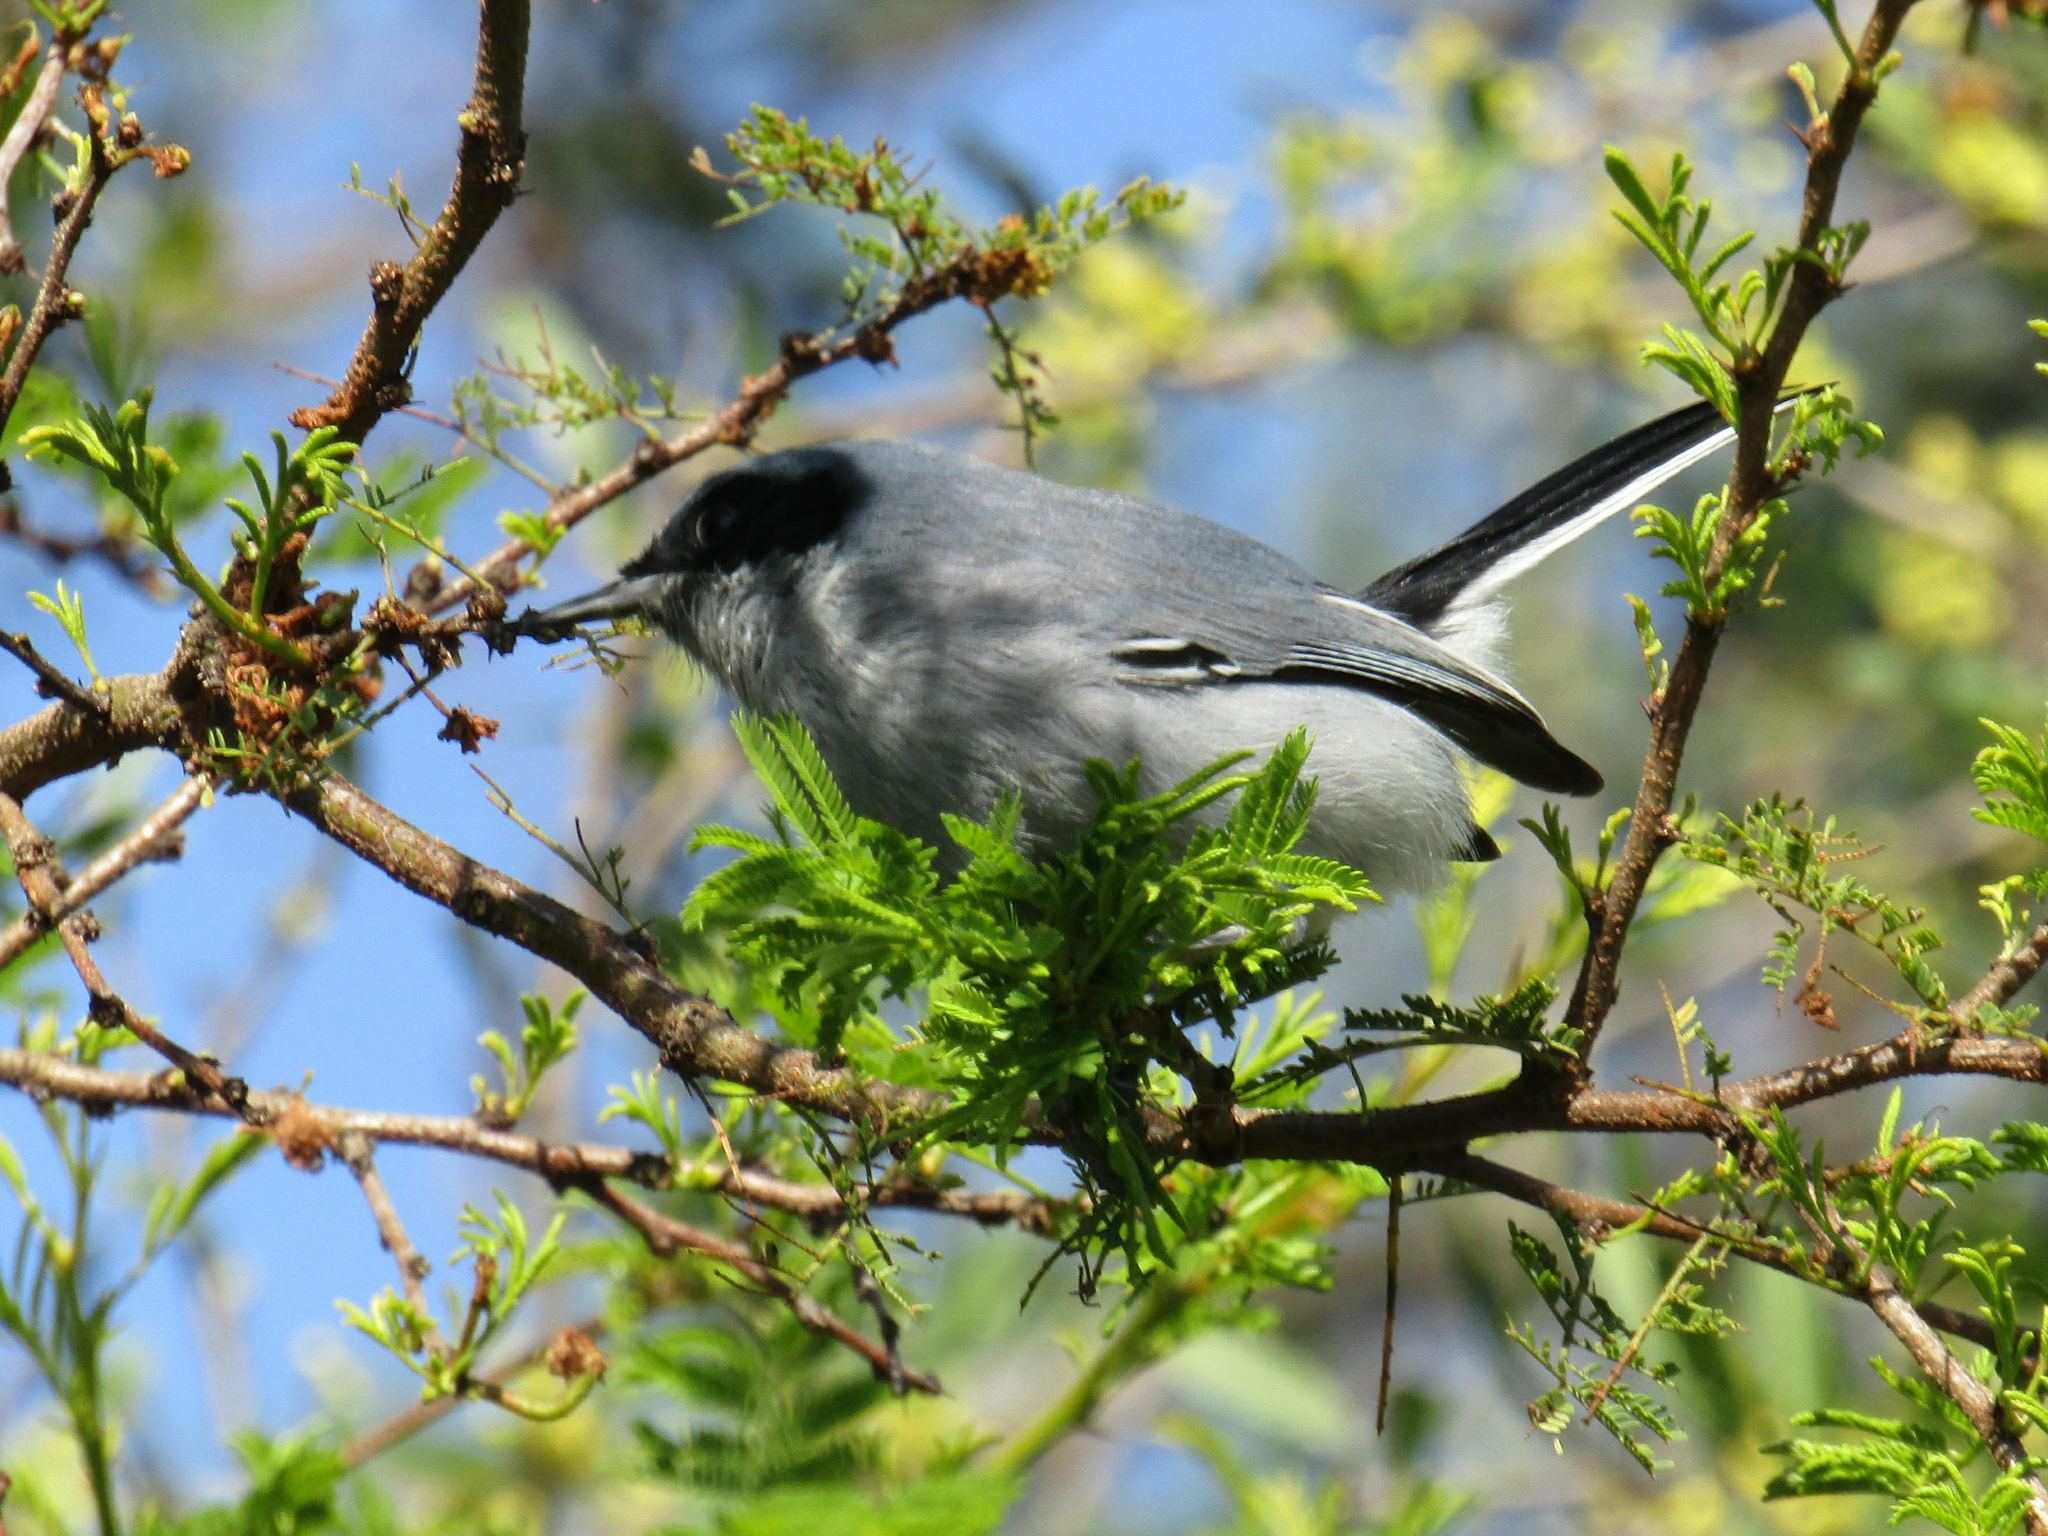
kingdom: Animalia
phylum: Chordata
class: Aves
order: Passeriformes
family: Polioptilidae
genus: Polioptila
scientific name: Polioptila dumicola
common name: Masked gnatcatcher
